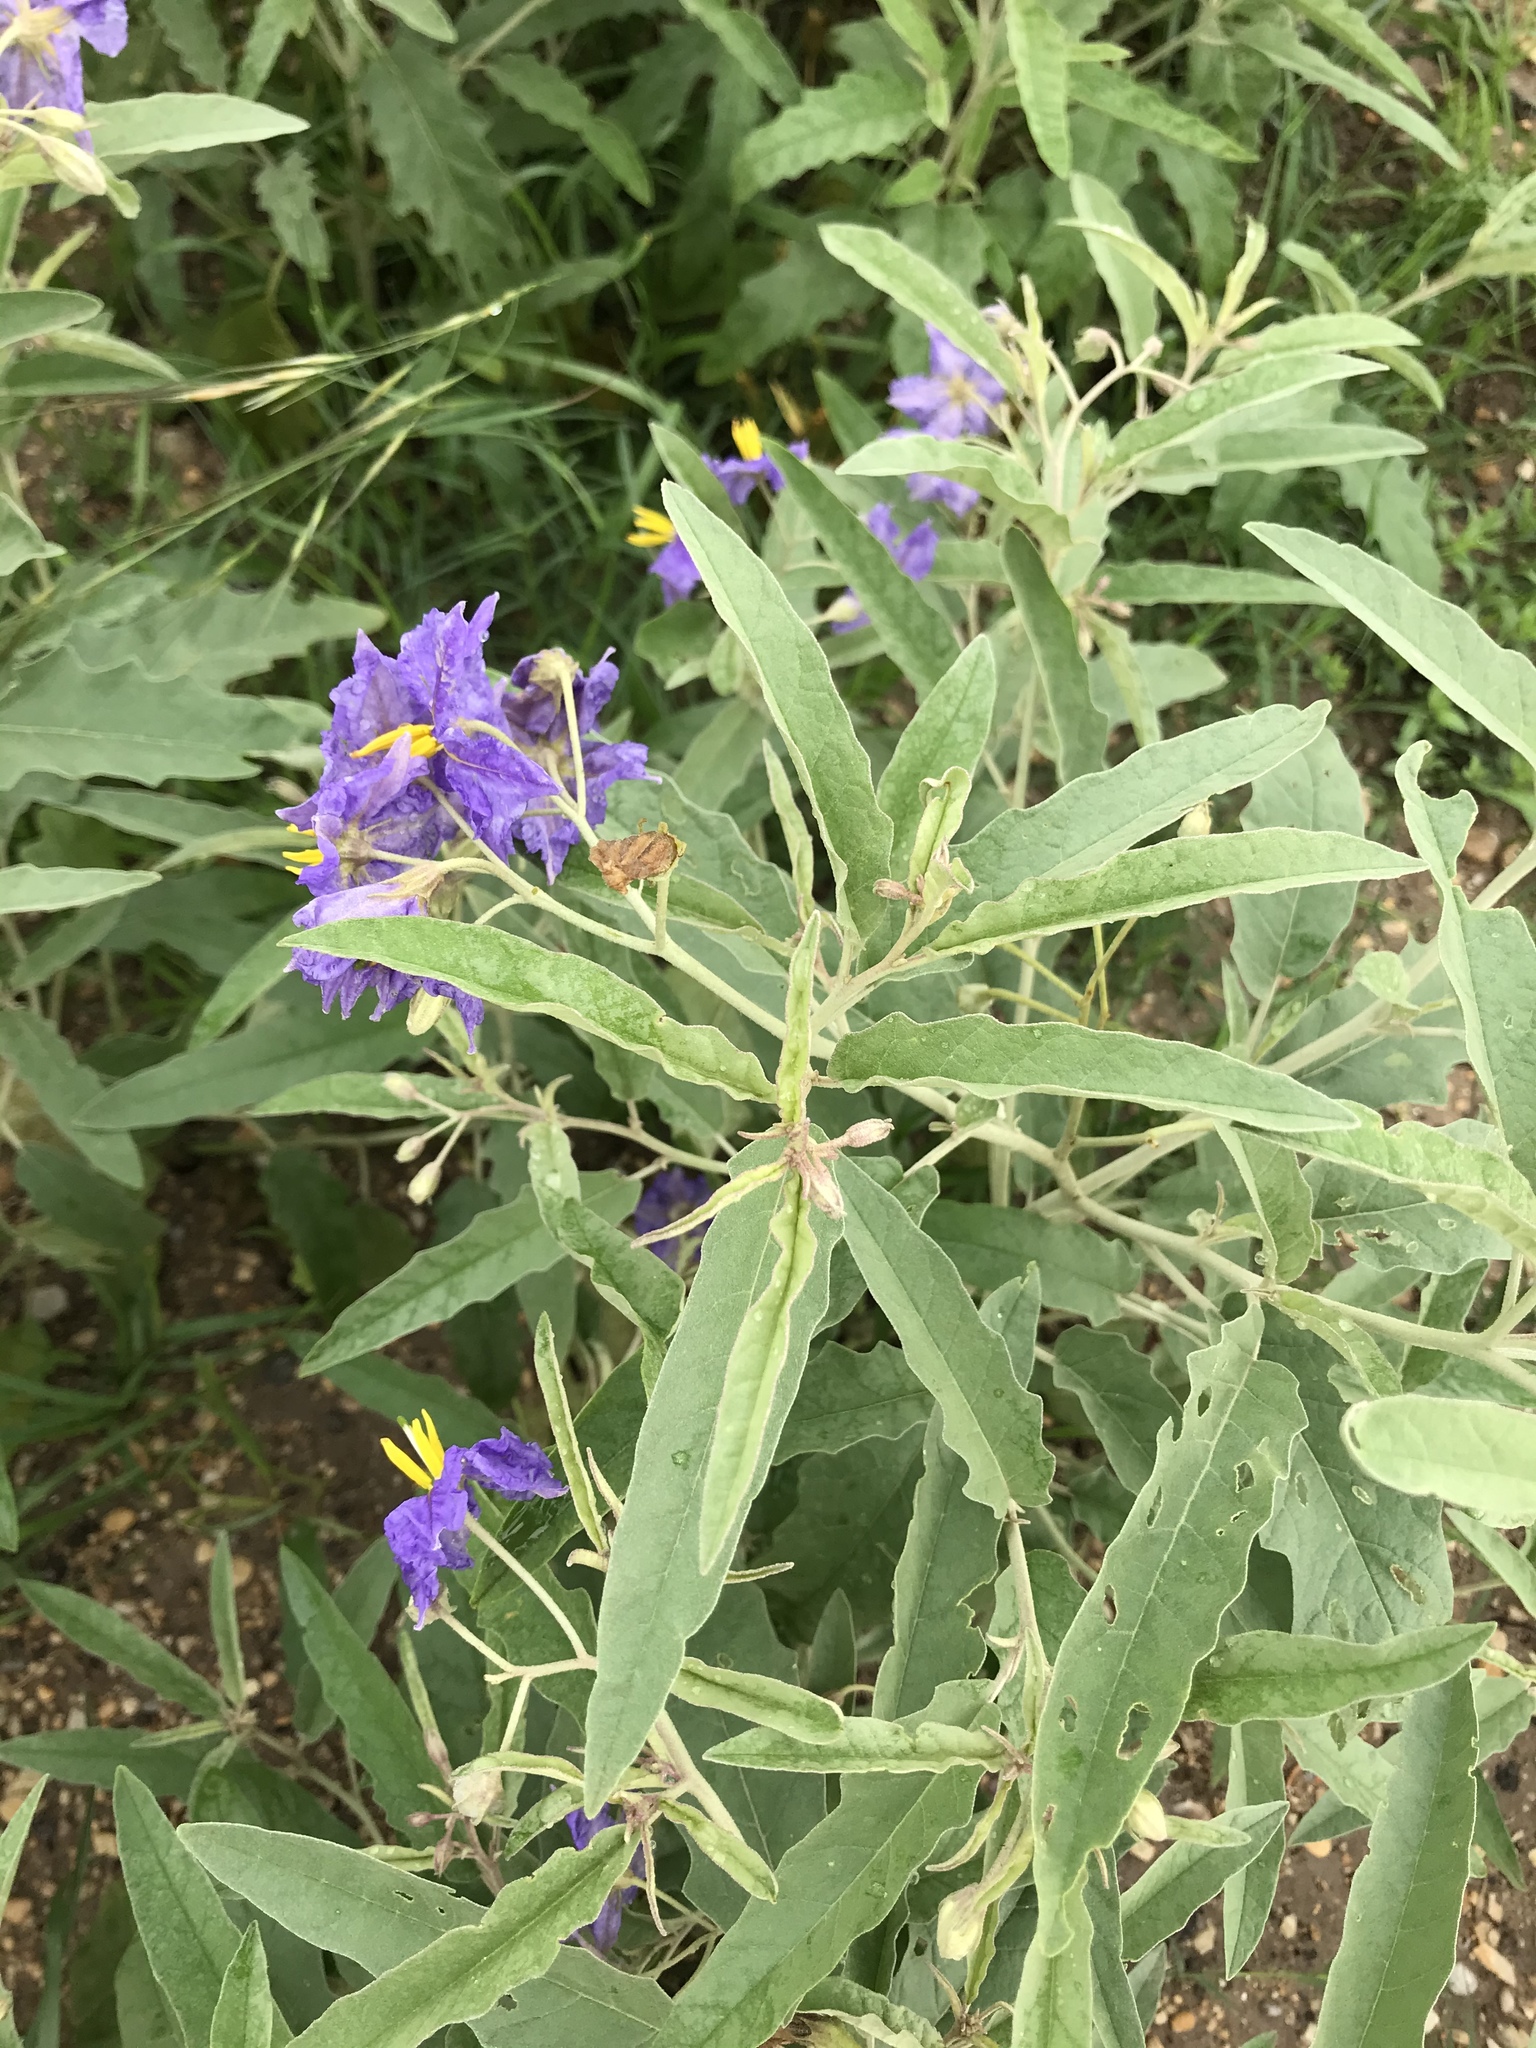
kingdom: Plantae
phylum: Tracheophyta
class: Magnoliopsida
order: Solanales
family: Solanaceae
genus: Solanum
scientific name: Solanum elaeagnifolium
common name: Silverleaf nightshade
